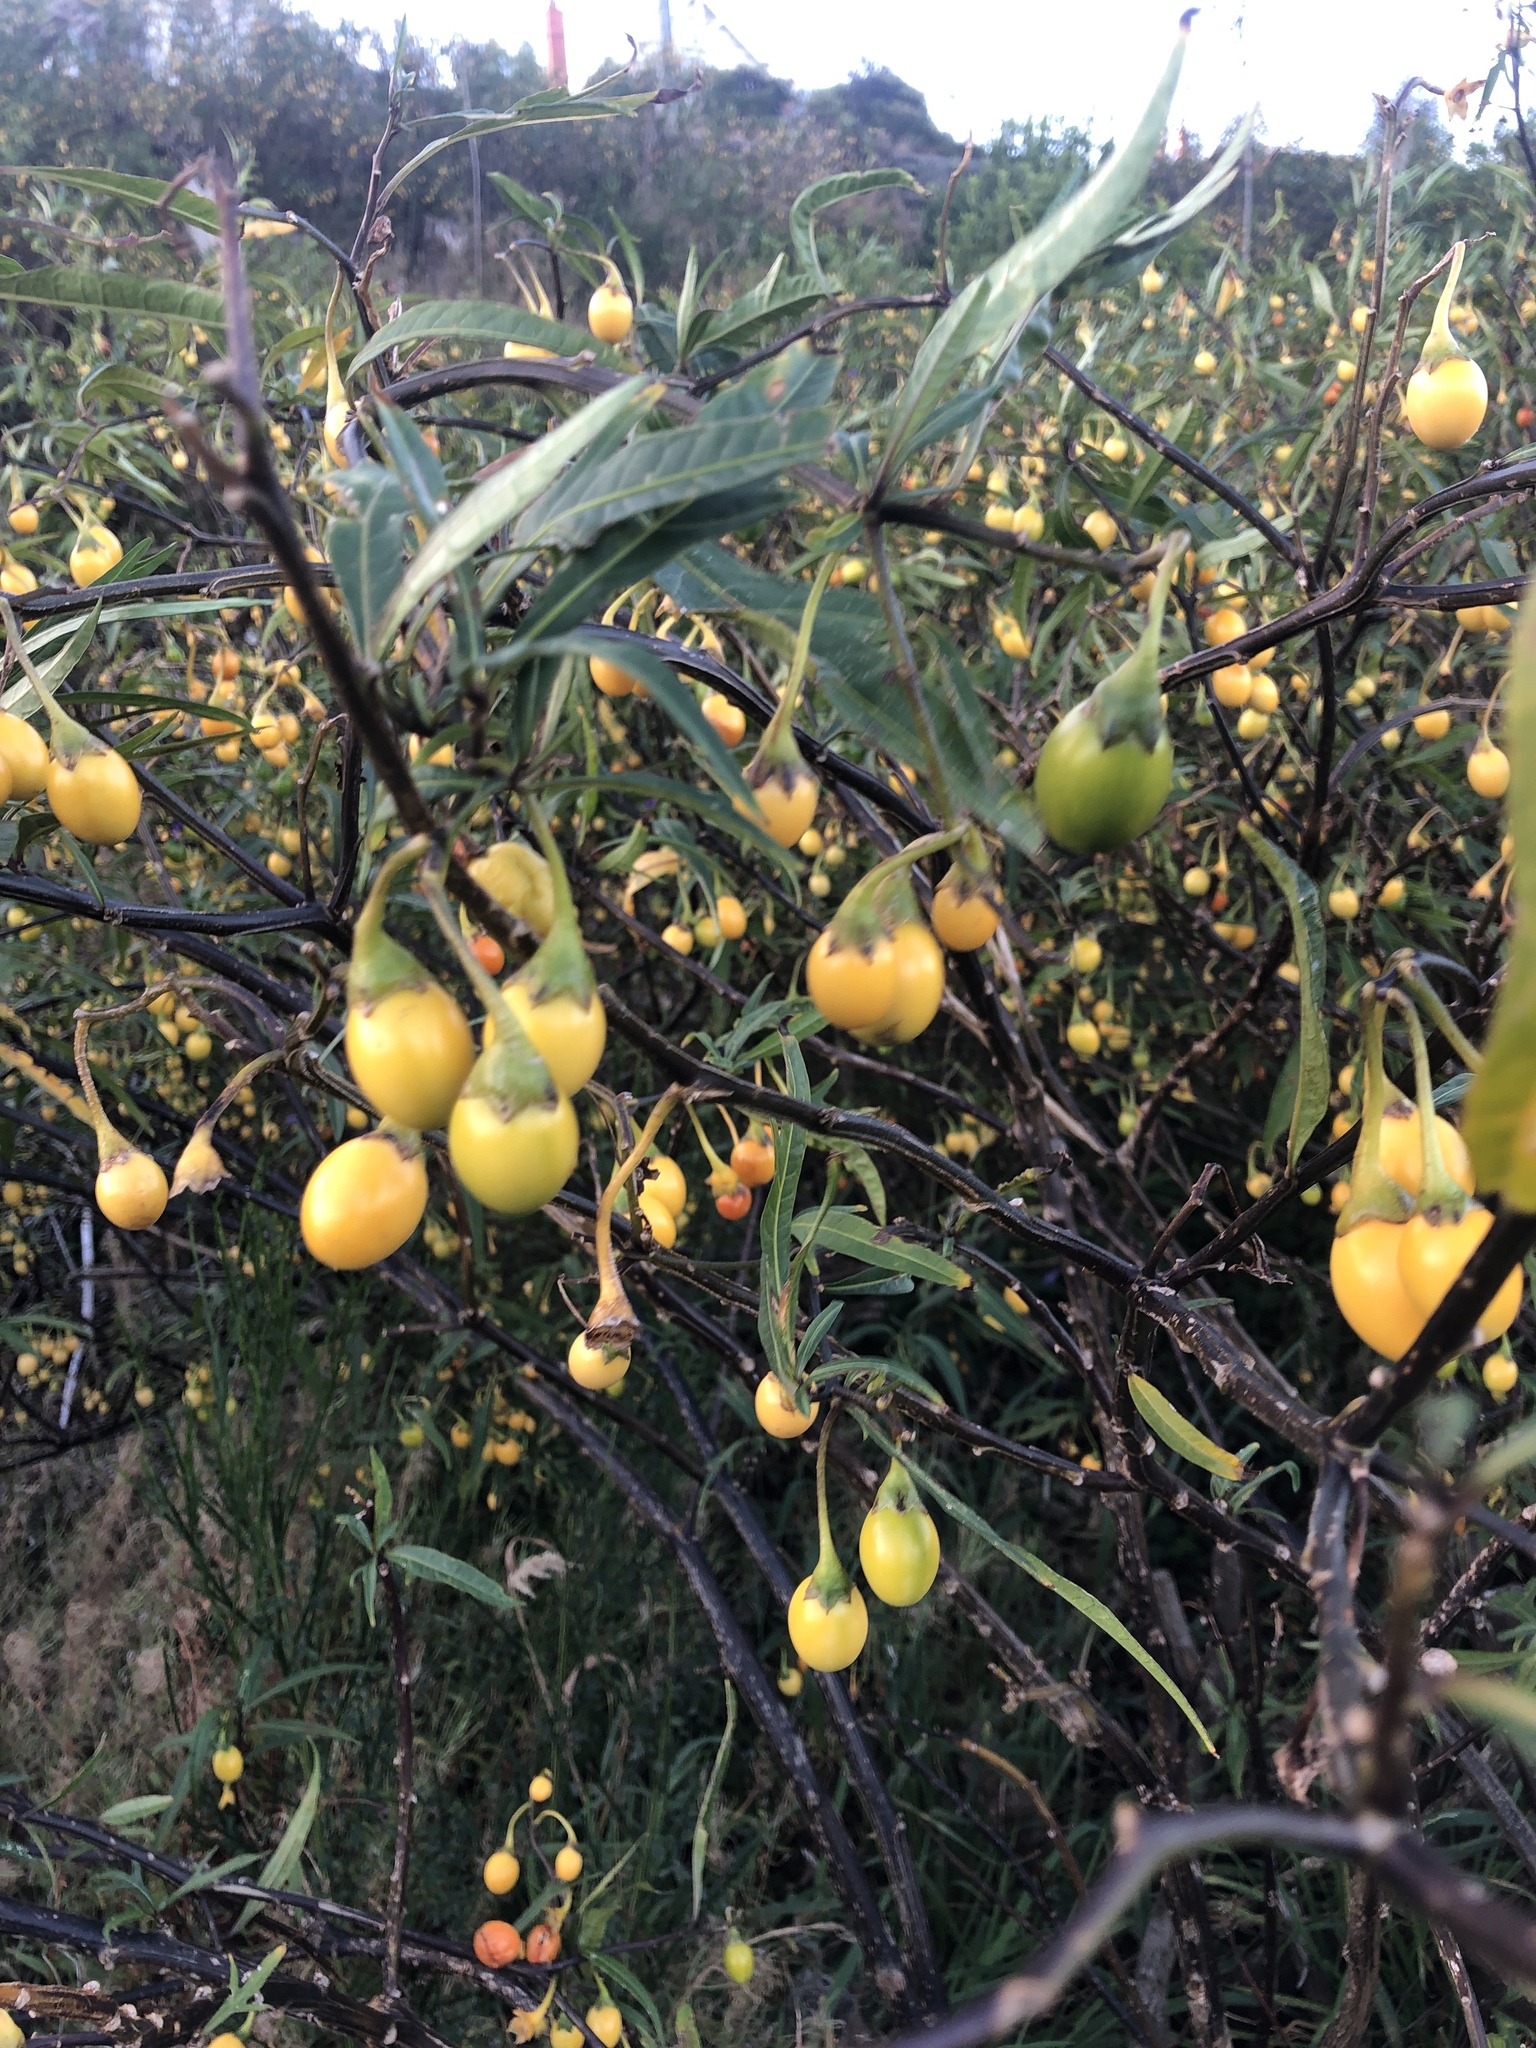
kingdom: Plantae
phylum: Tracheophyta
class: Magnoliopsida
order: Solanales
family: Solanaceae
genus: Solanum
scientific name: Solanum laciniatum
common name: Kangaroo-apple
